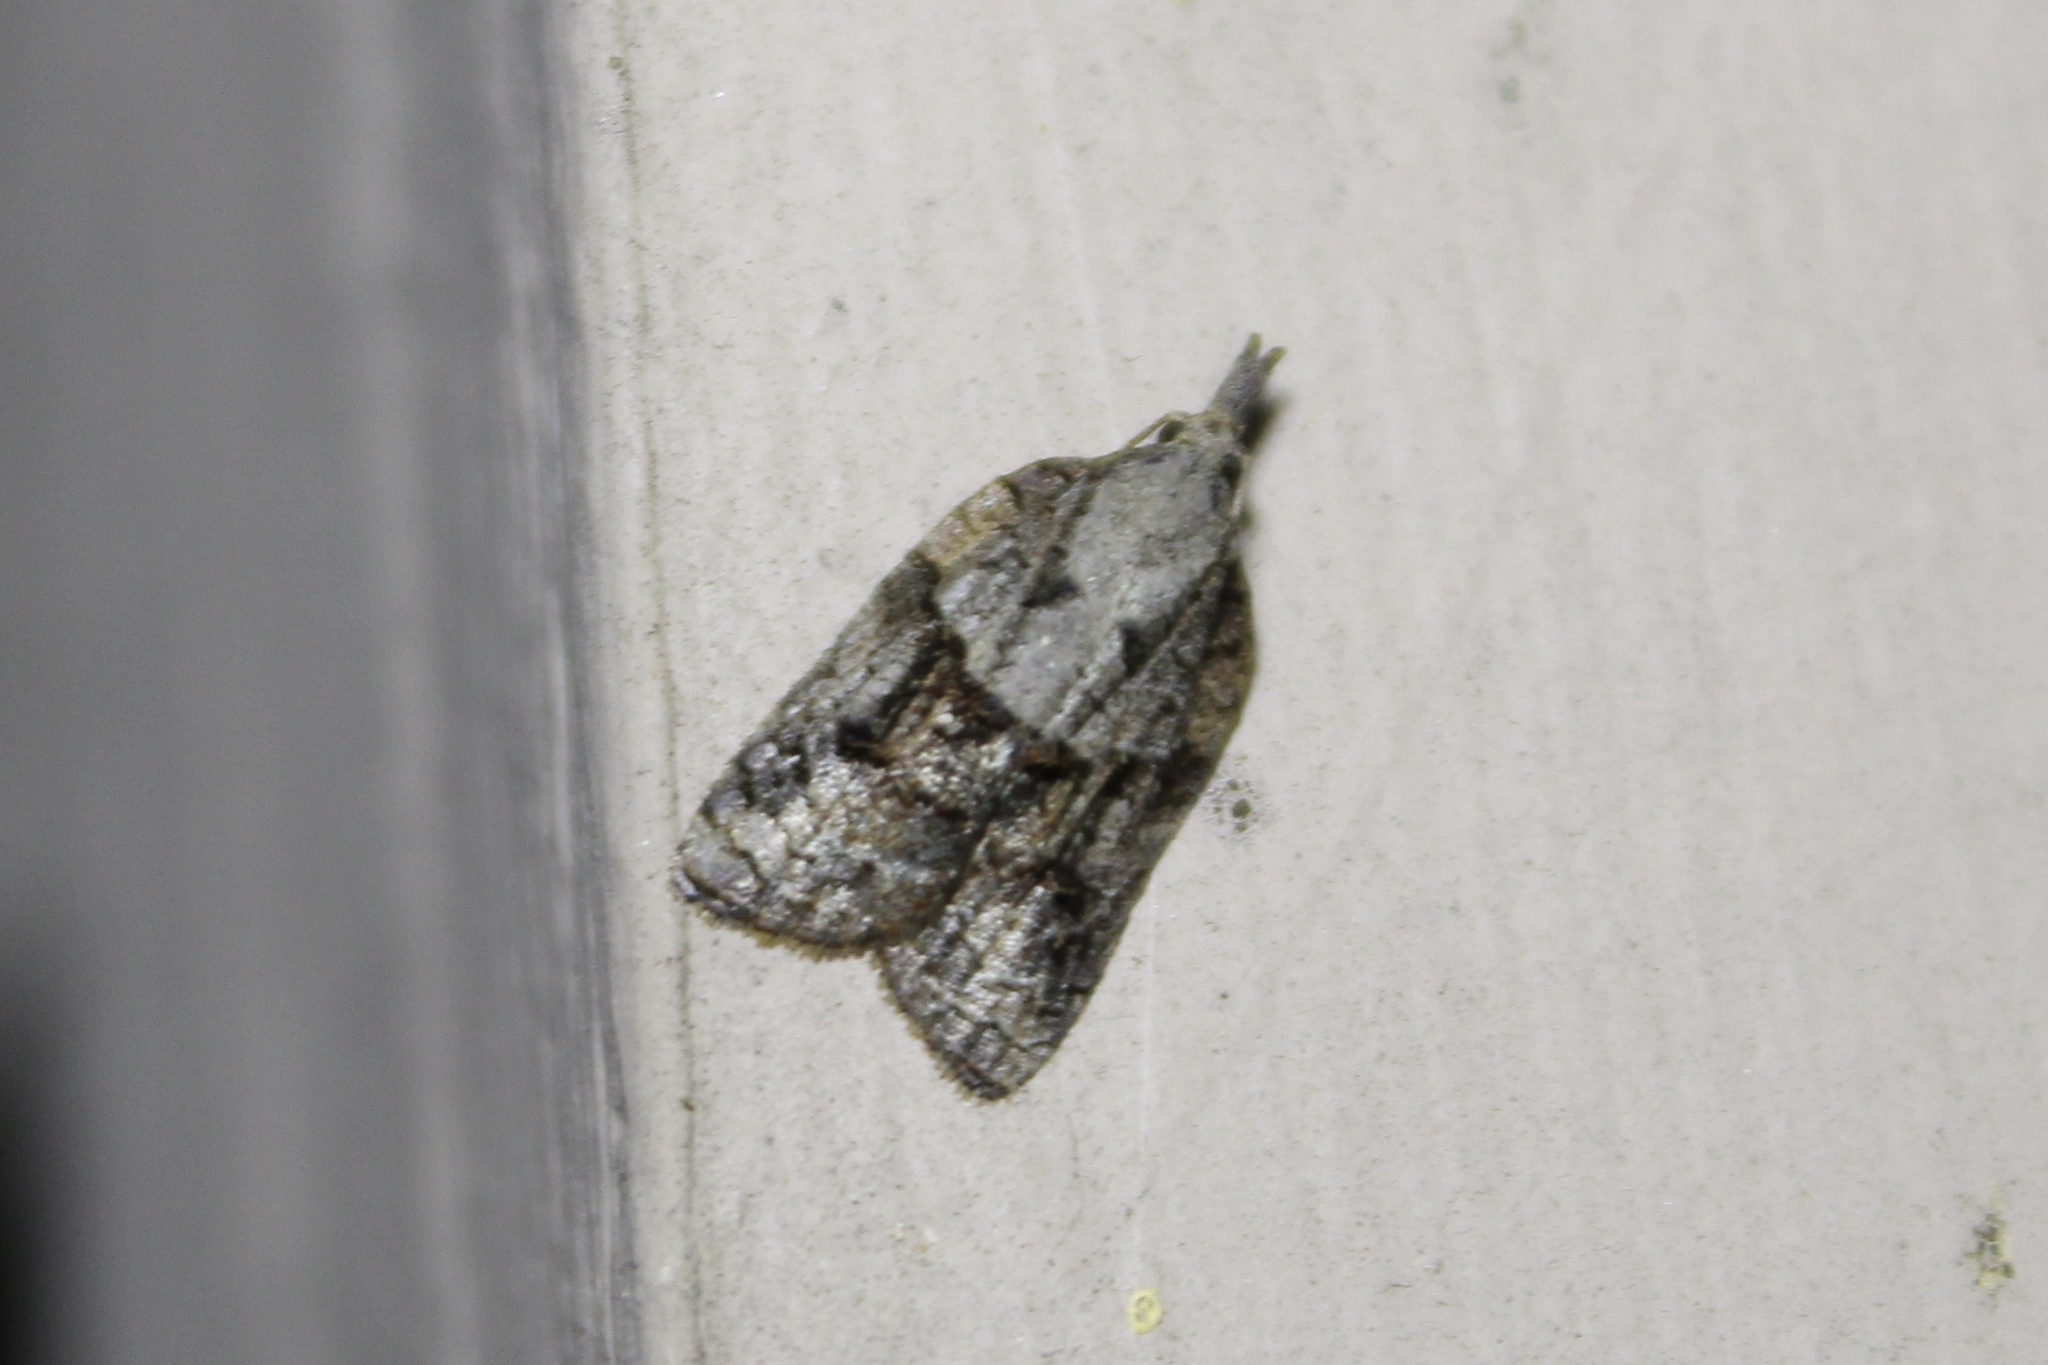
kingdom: Animalia
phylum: Arthropoda
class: Insecta
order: Lepidoptera
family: Tortricidae
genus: Platynota
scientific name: Platynota idaeusalis
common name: Tufted apple bud moth
